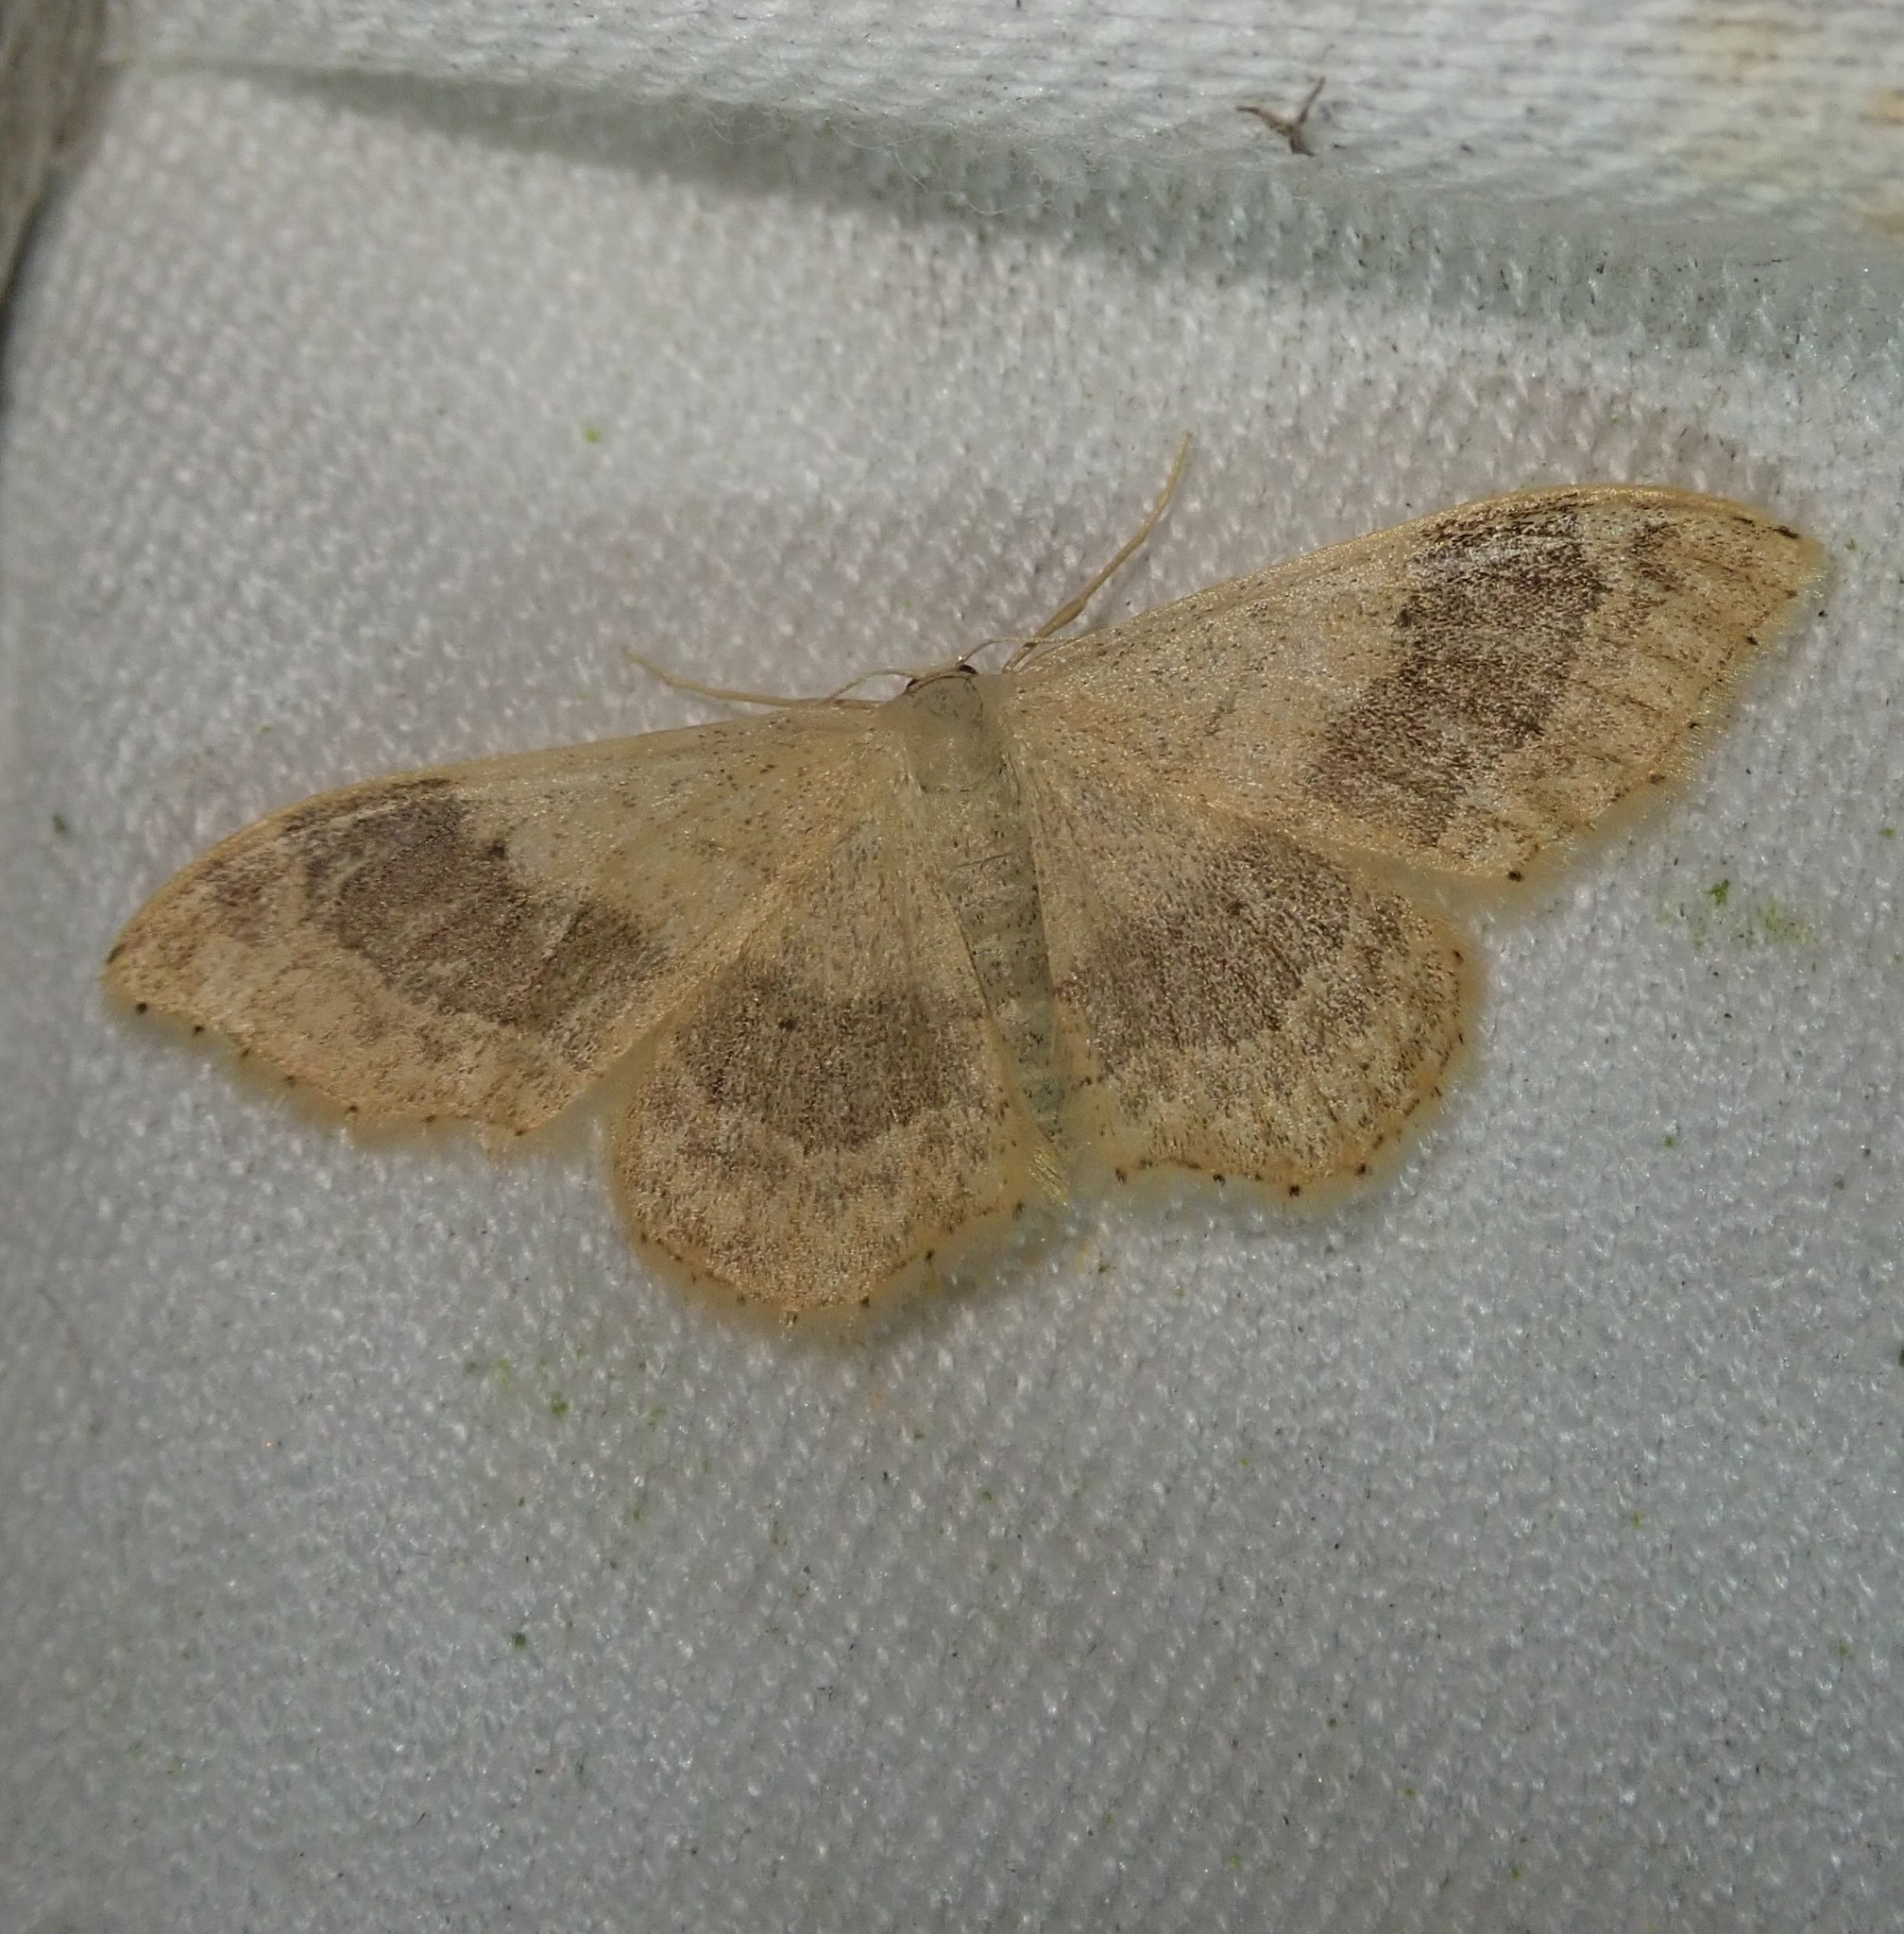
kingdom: Animalia
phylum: Arthropoda
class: Insecta
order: Lepidoptera
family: Geometridae
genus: Idaea
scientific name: Idaea aversata
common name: Riband wave
